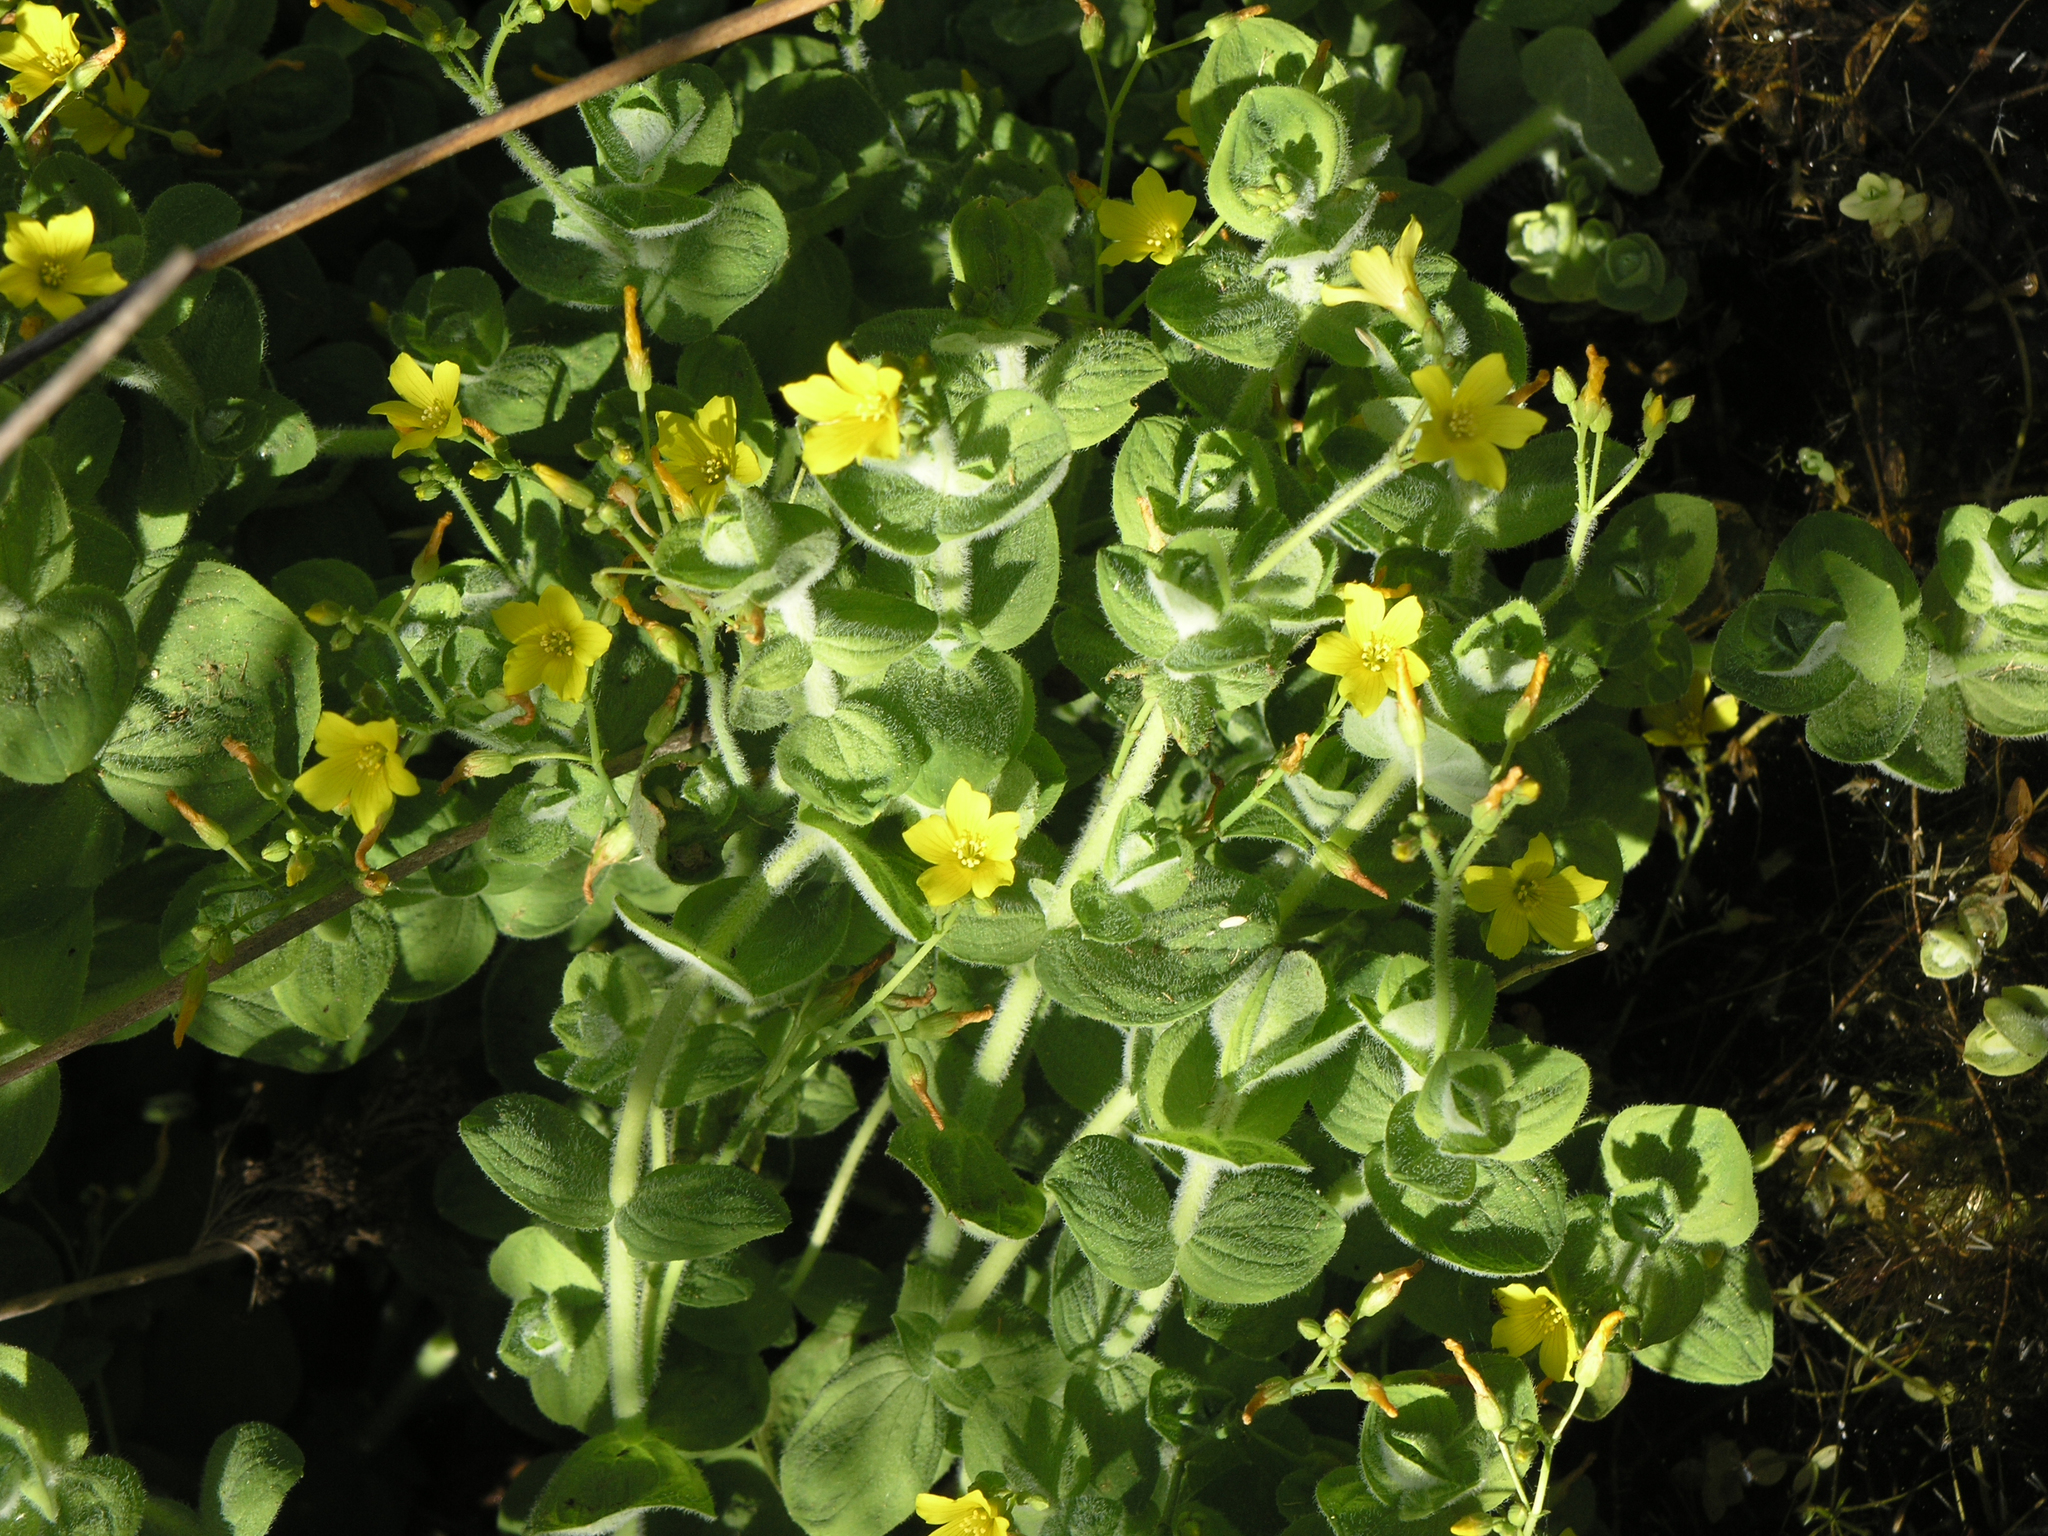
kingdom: Plantae
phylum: Tracheophyta
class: Magnoliopsida
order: Malpighiales
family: Hypericaceae
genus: Hypericum
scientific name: Hypericum elodes
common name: Marsh st. john's-wort
